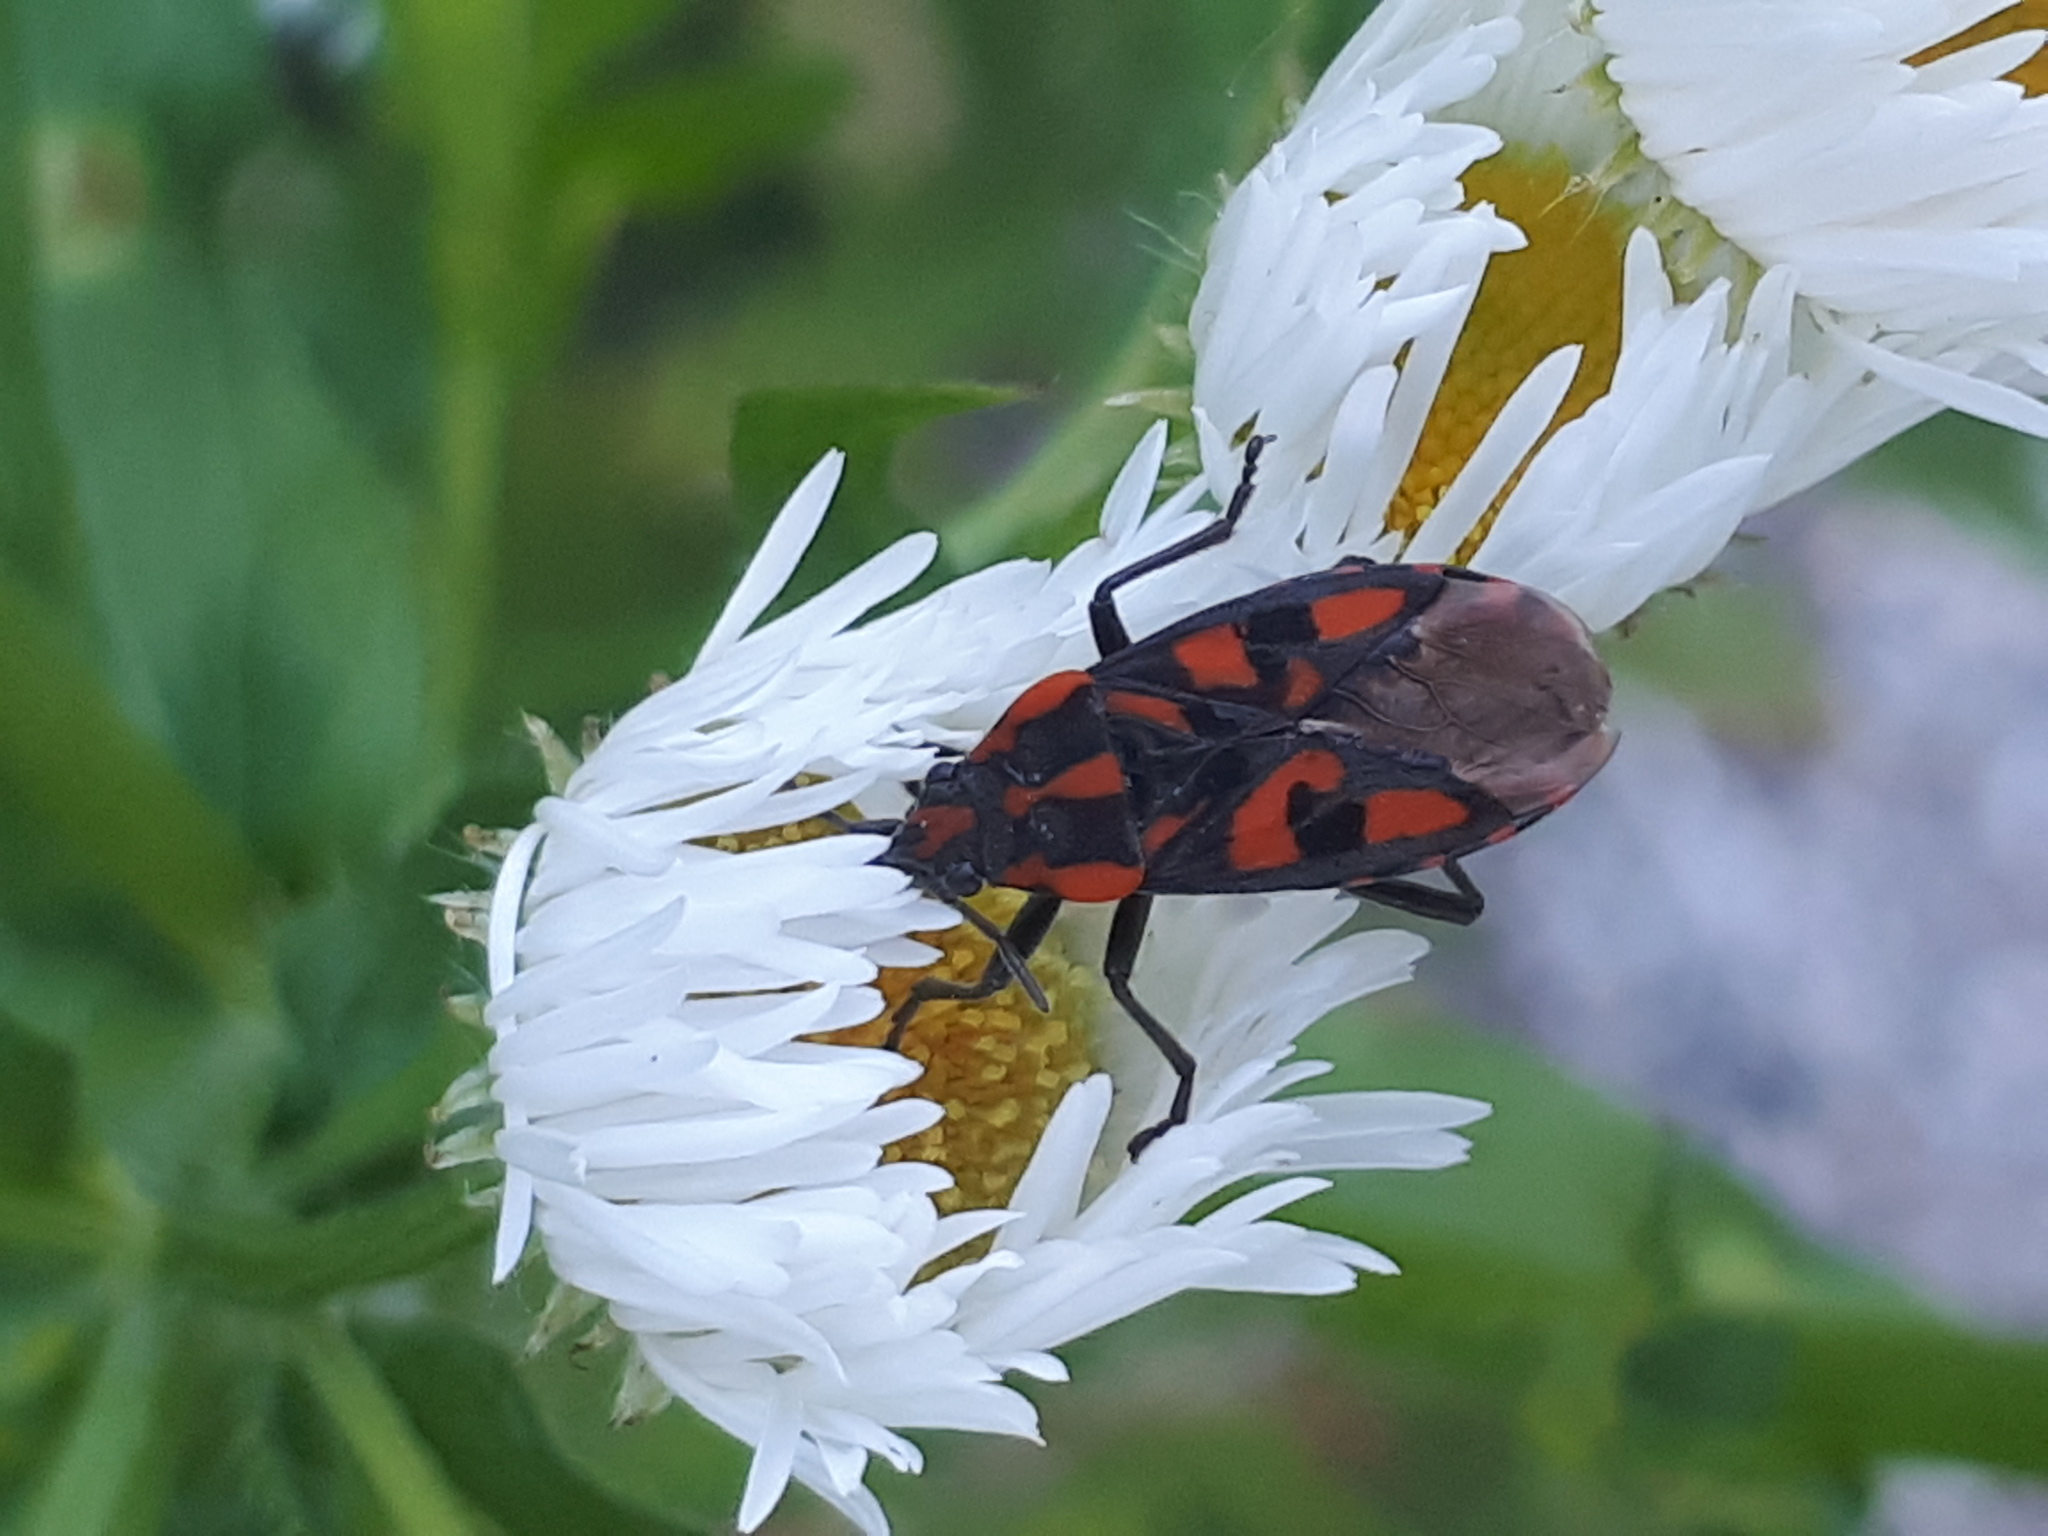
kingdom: Animalia
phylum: Arthropoda
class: Insecta
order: Hemiptera
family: Lygaeidae
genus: Spilostethus
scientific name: Spilostethus saxatilis
